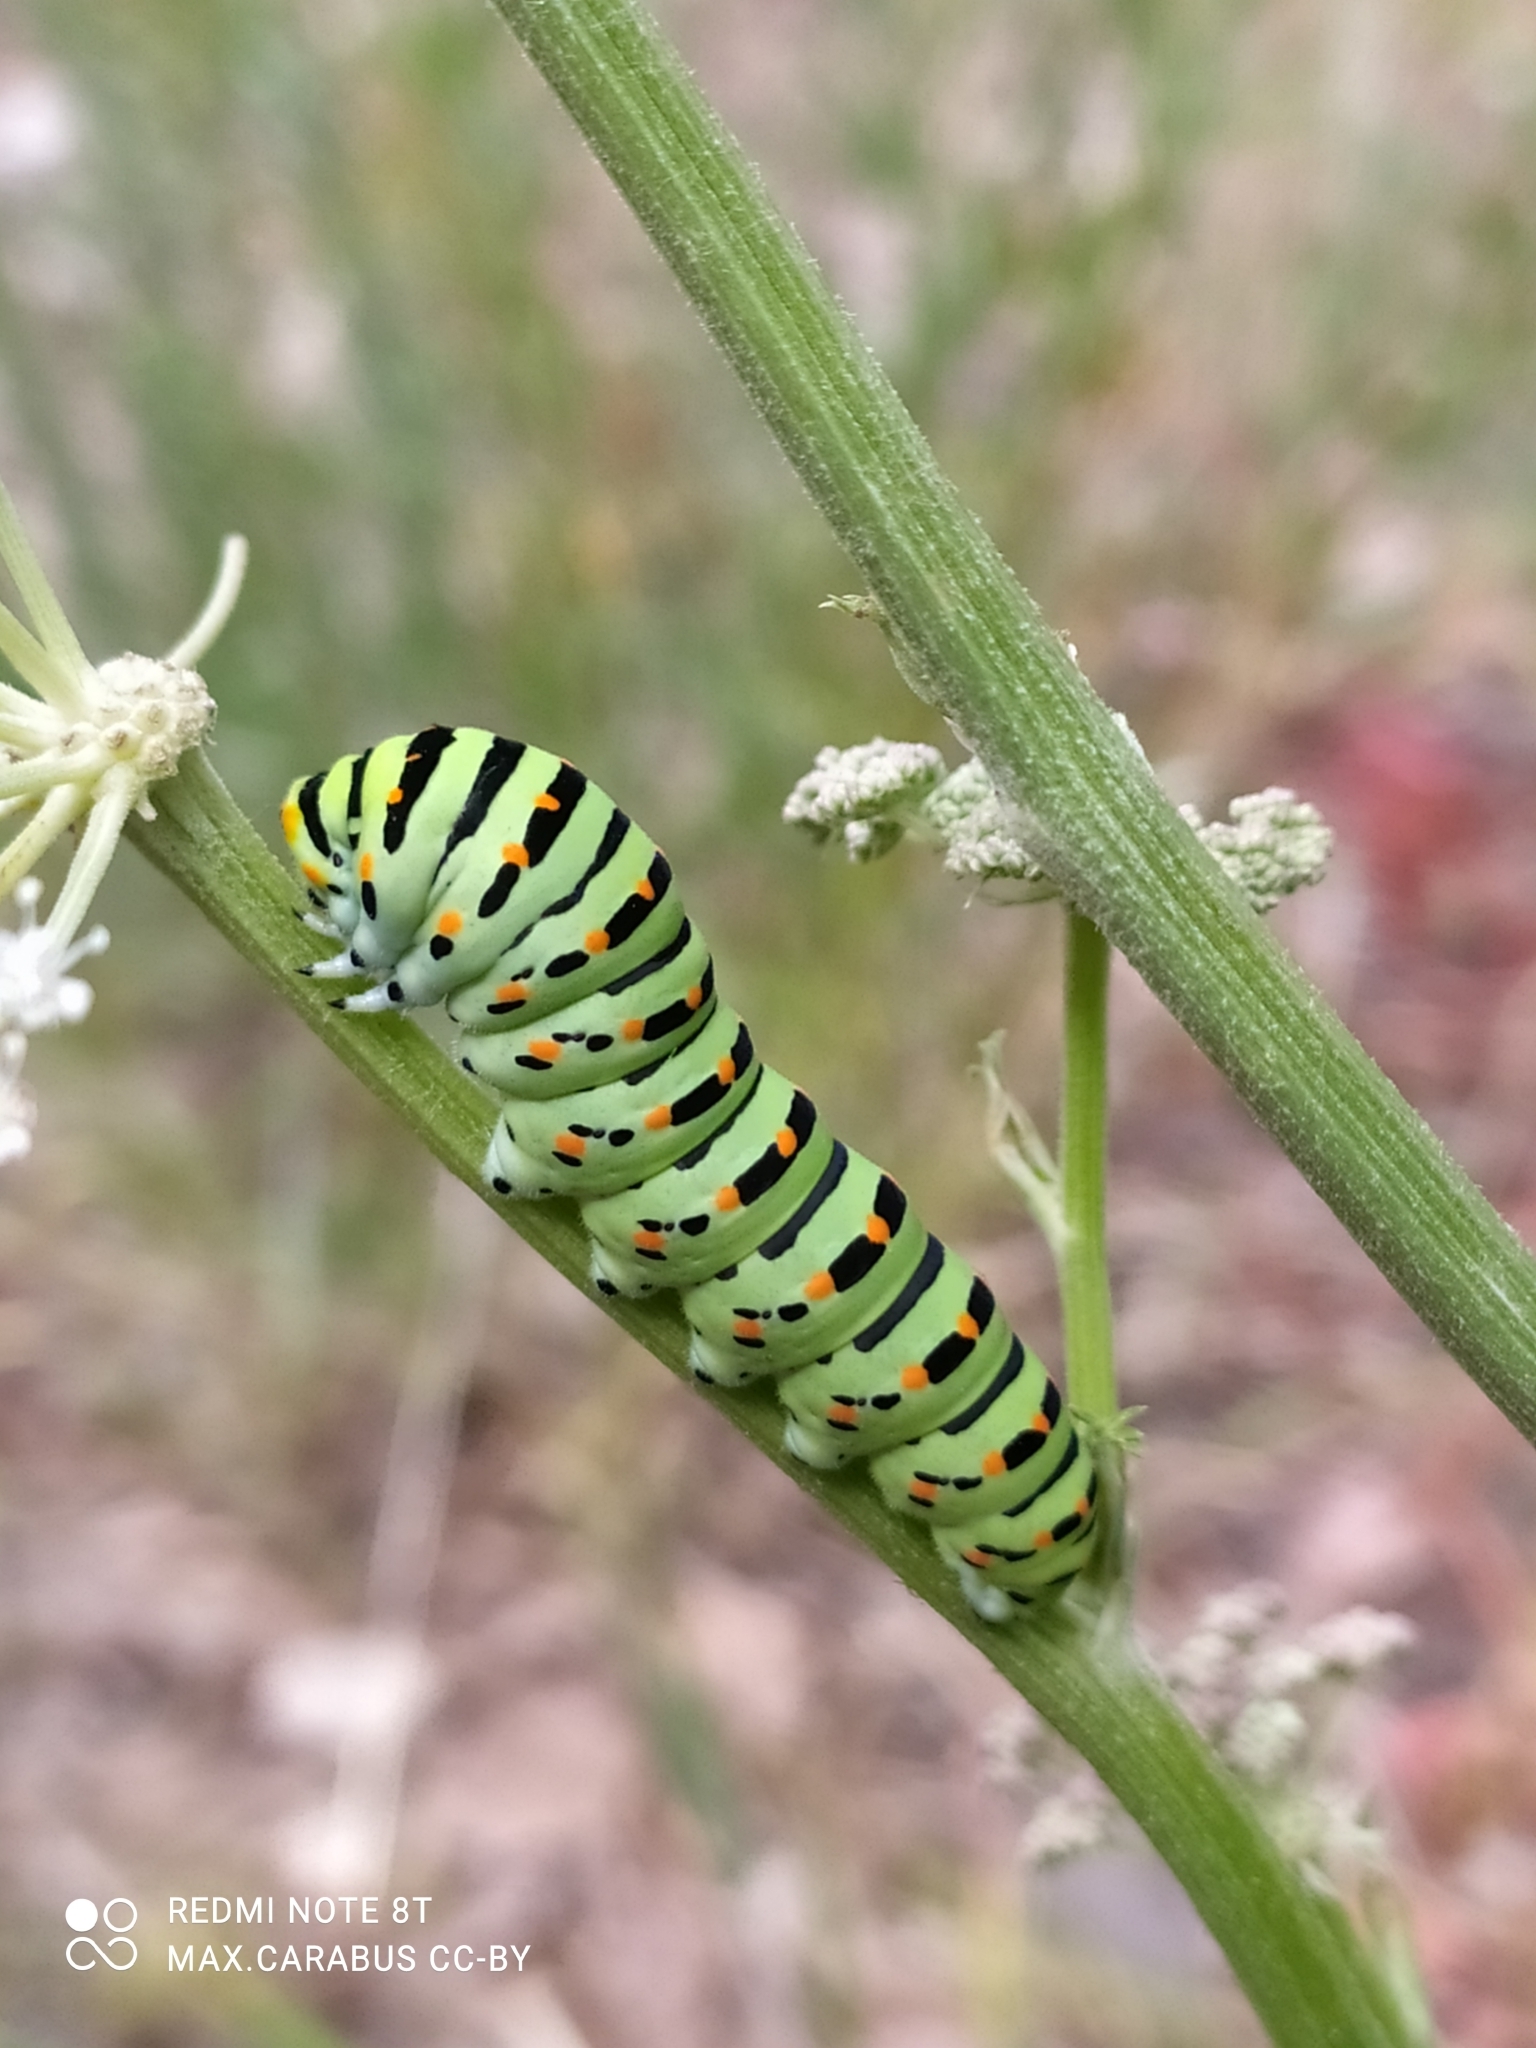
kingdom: Animalia
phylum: Arthropoda
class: Insecta
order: Lepidoptera
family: Papilionidae
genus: Papilio
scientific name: Papilio machaon
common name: Swallowtail
